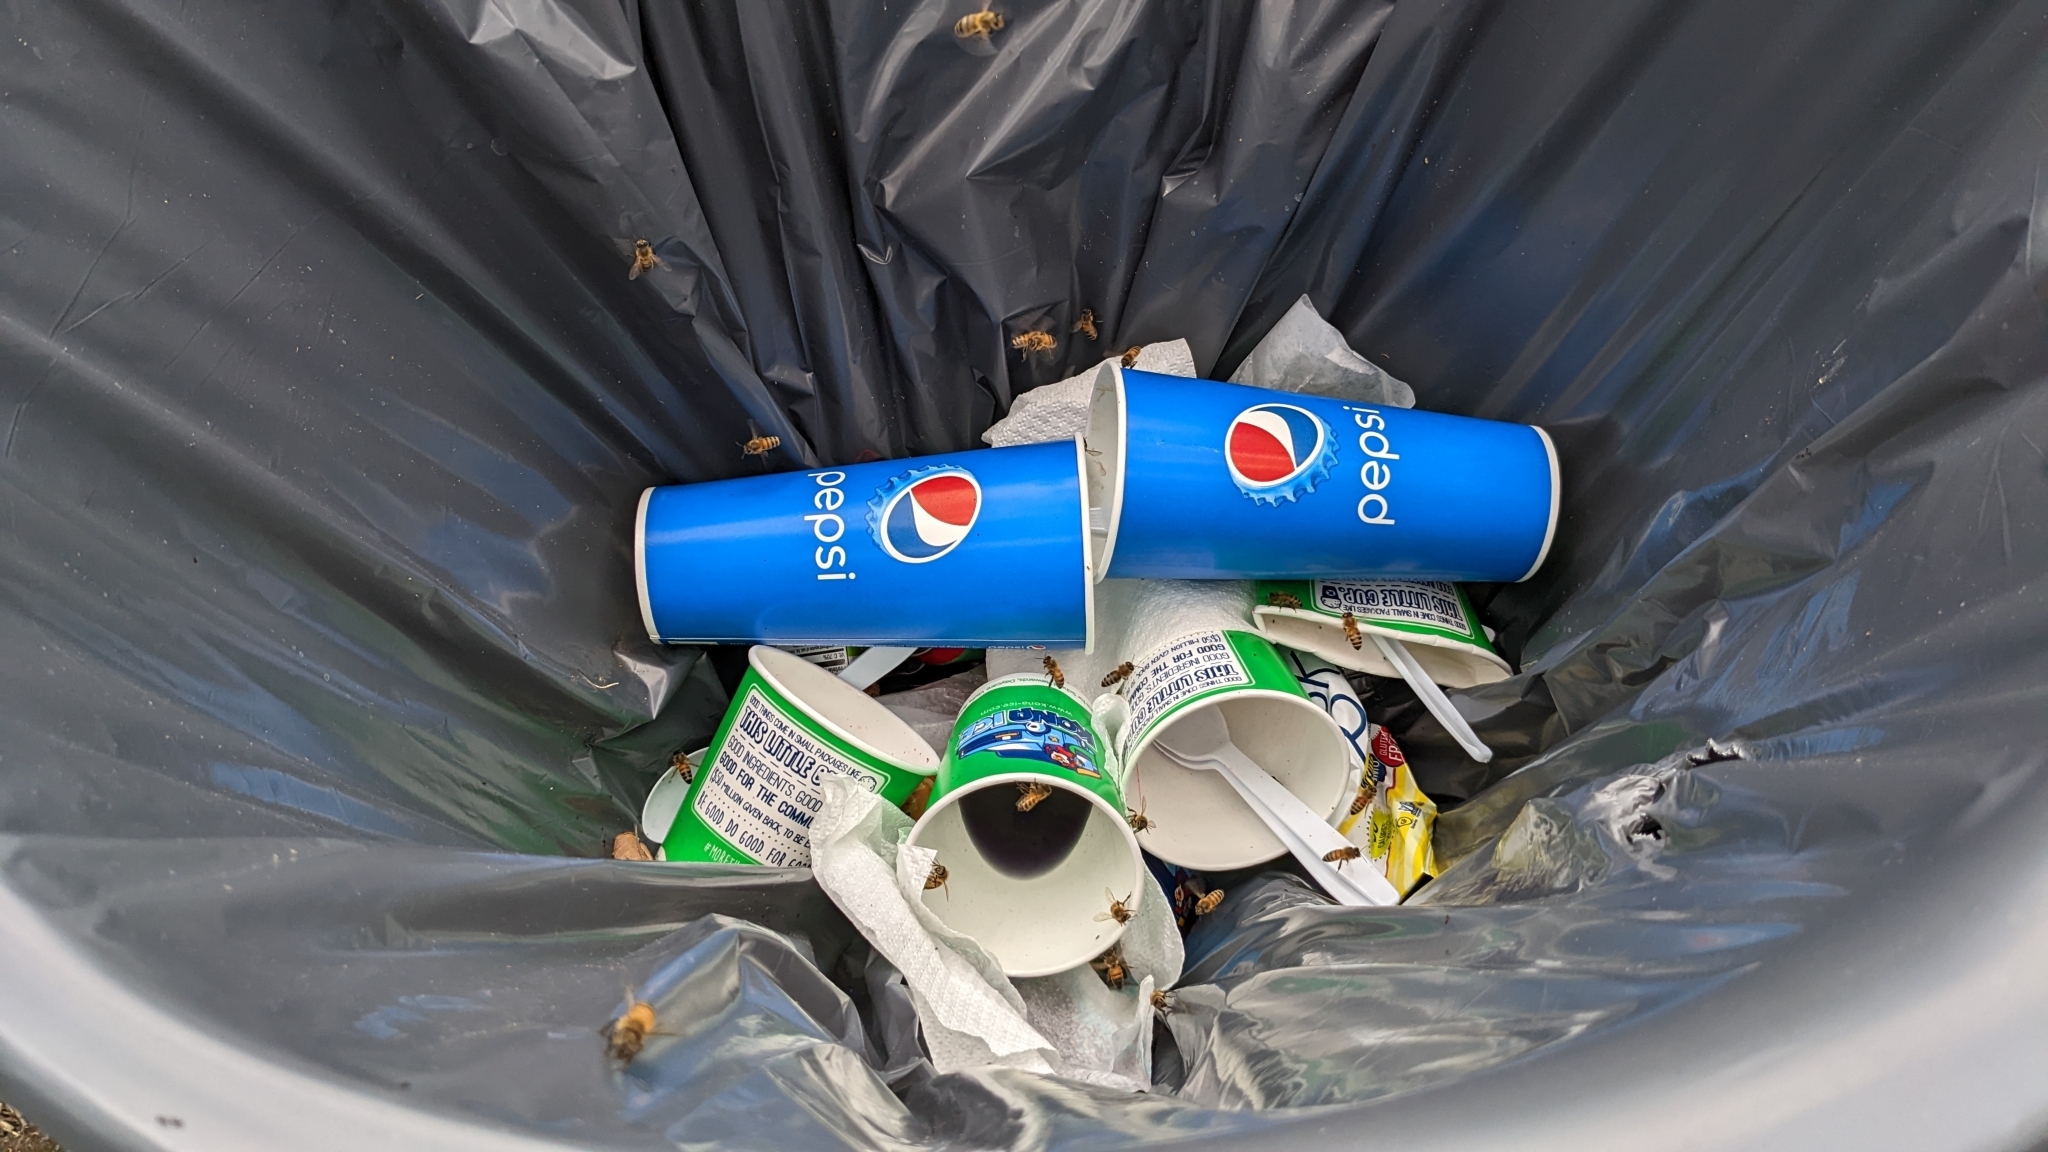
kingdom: Animalia
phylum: Arthropoda
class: Insecta
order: Hymenoptera
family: Apidae
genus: Apis
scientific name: Apis mellifera
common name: Honey bee
